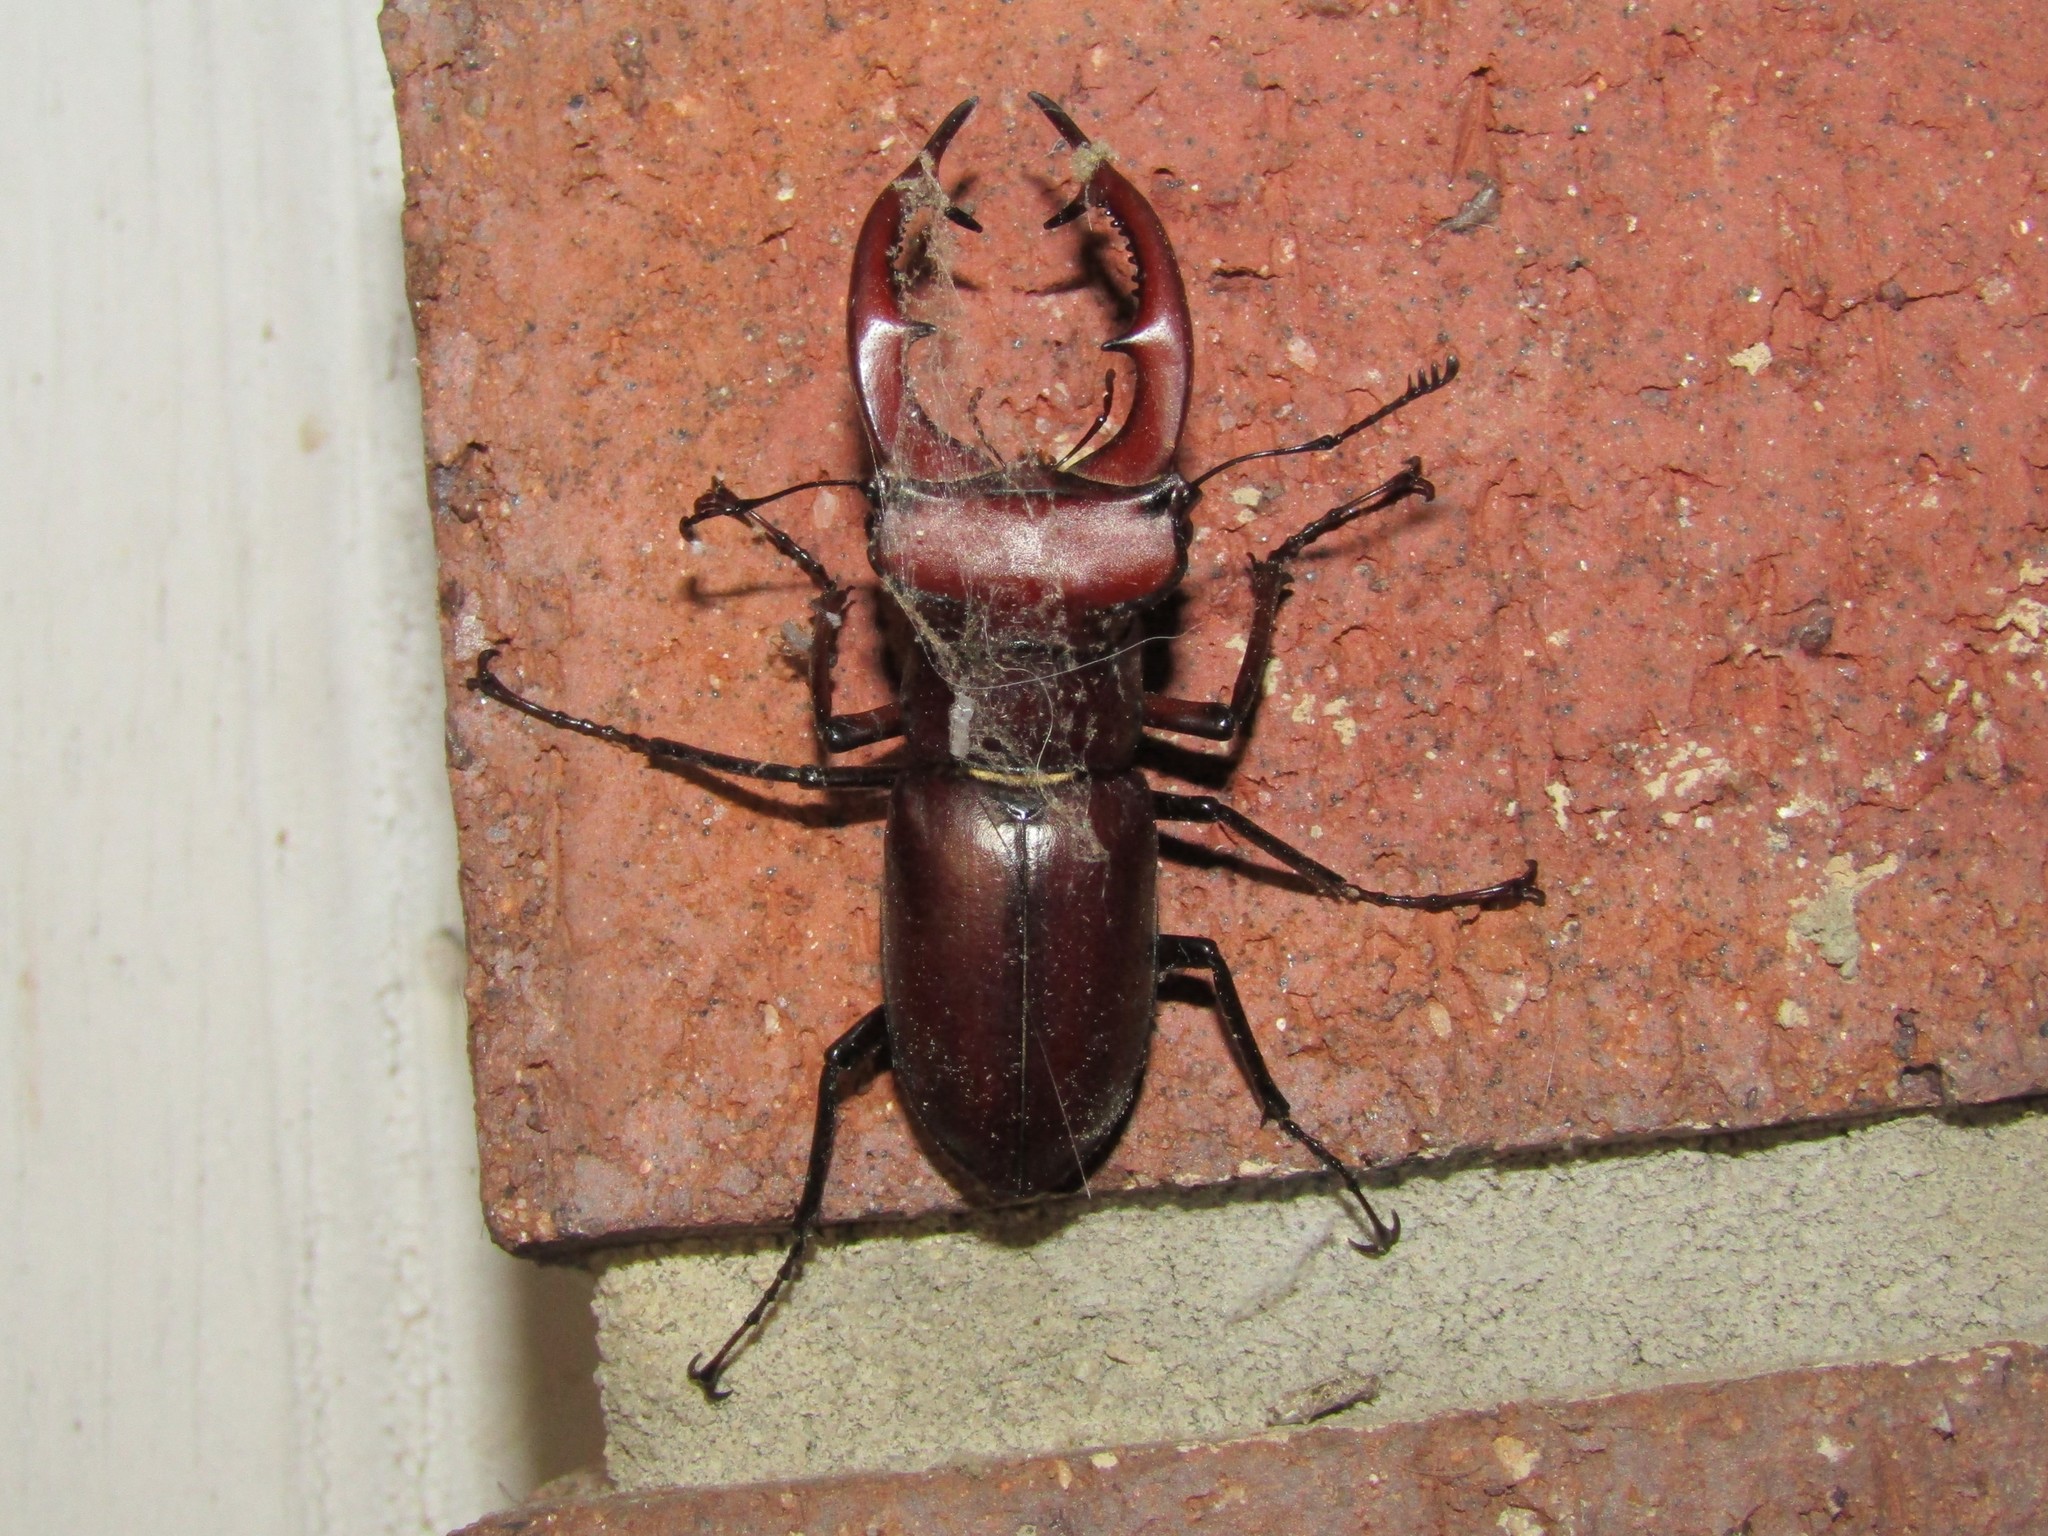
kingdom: Animalia
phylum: Arthropoda
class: Insecta
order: Coleoptera
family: Lucanidae
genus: Lucanus
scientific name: Lucanus elaphus
